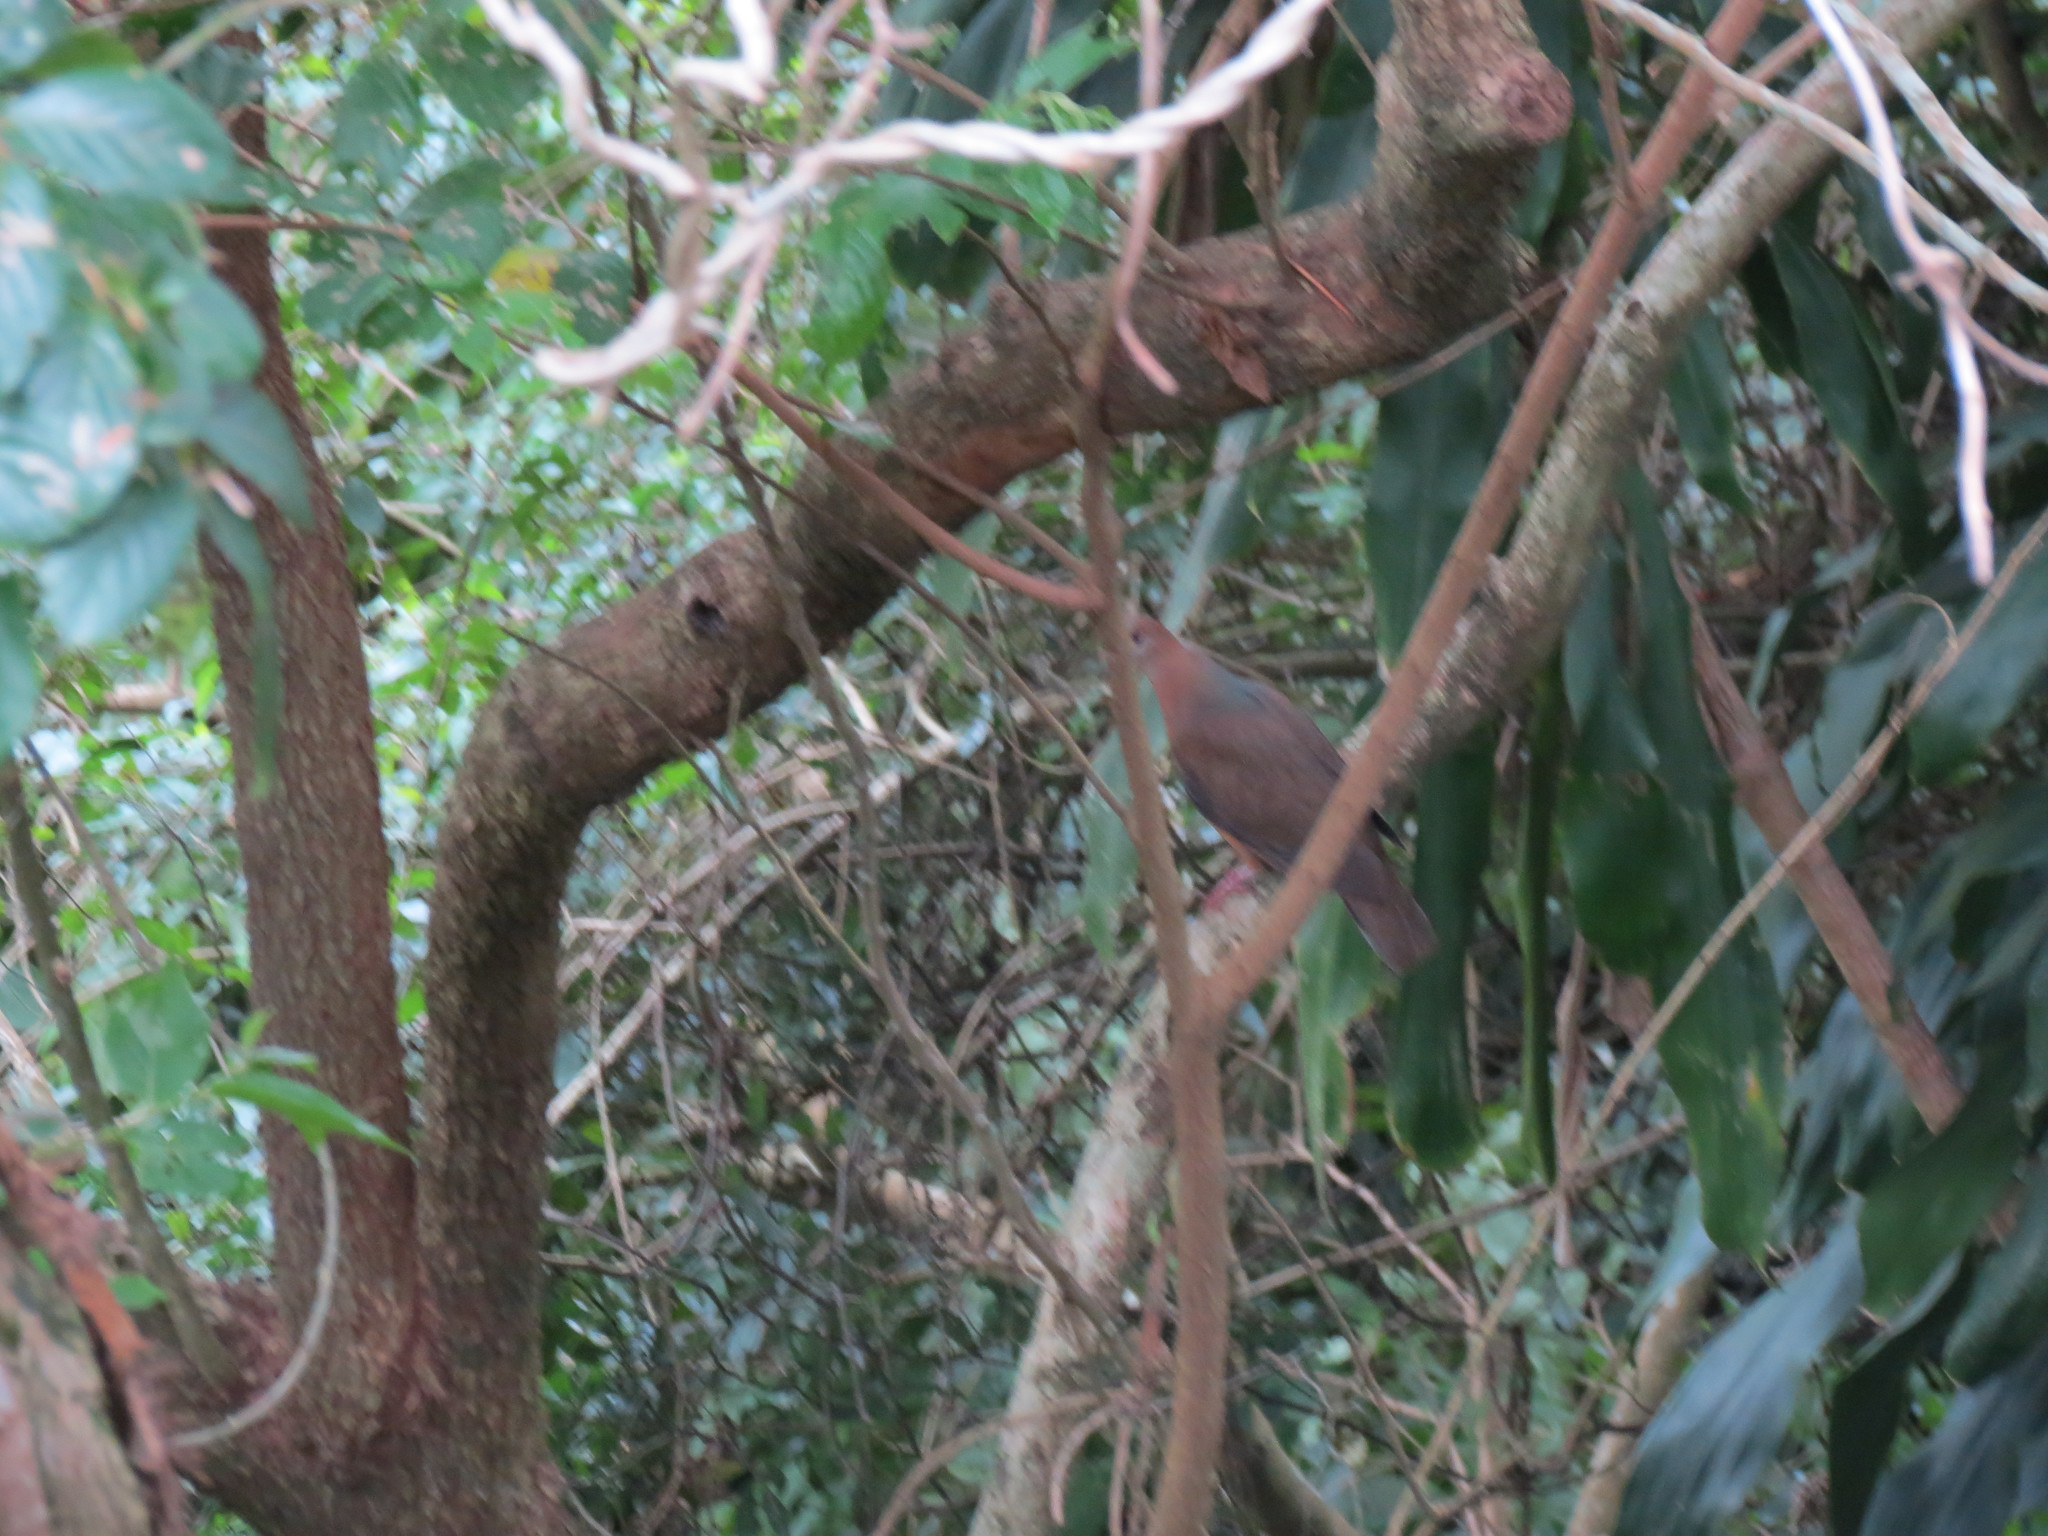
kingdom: Animalia
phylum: Chordata
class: Aves
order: Columbiformes
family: Columbidae
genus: Columba
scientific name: Columba larvata
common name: Lemon dove
